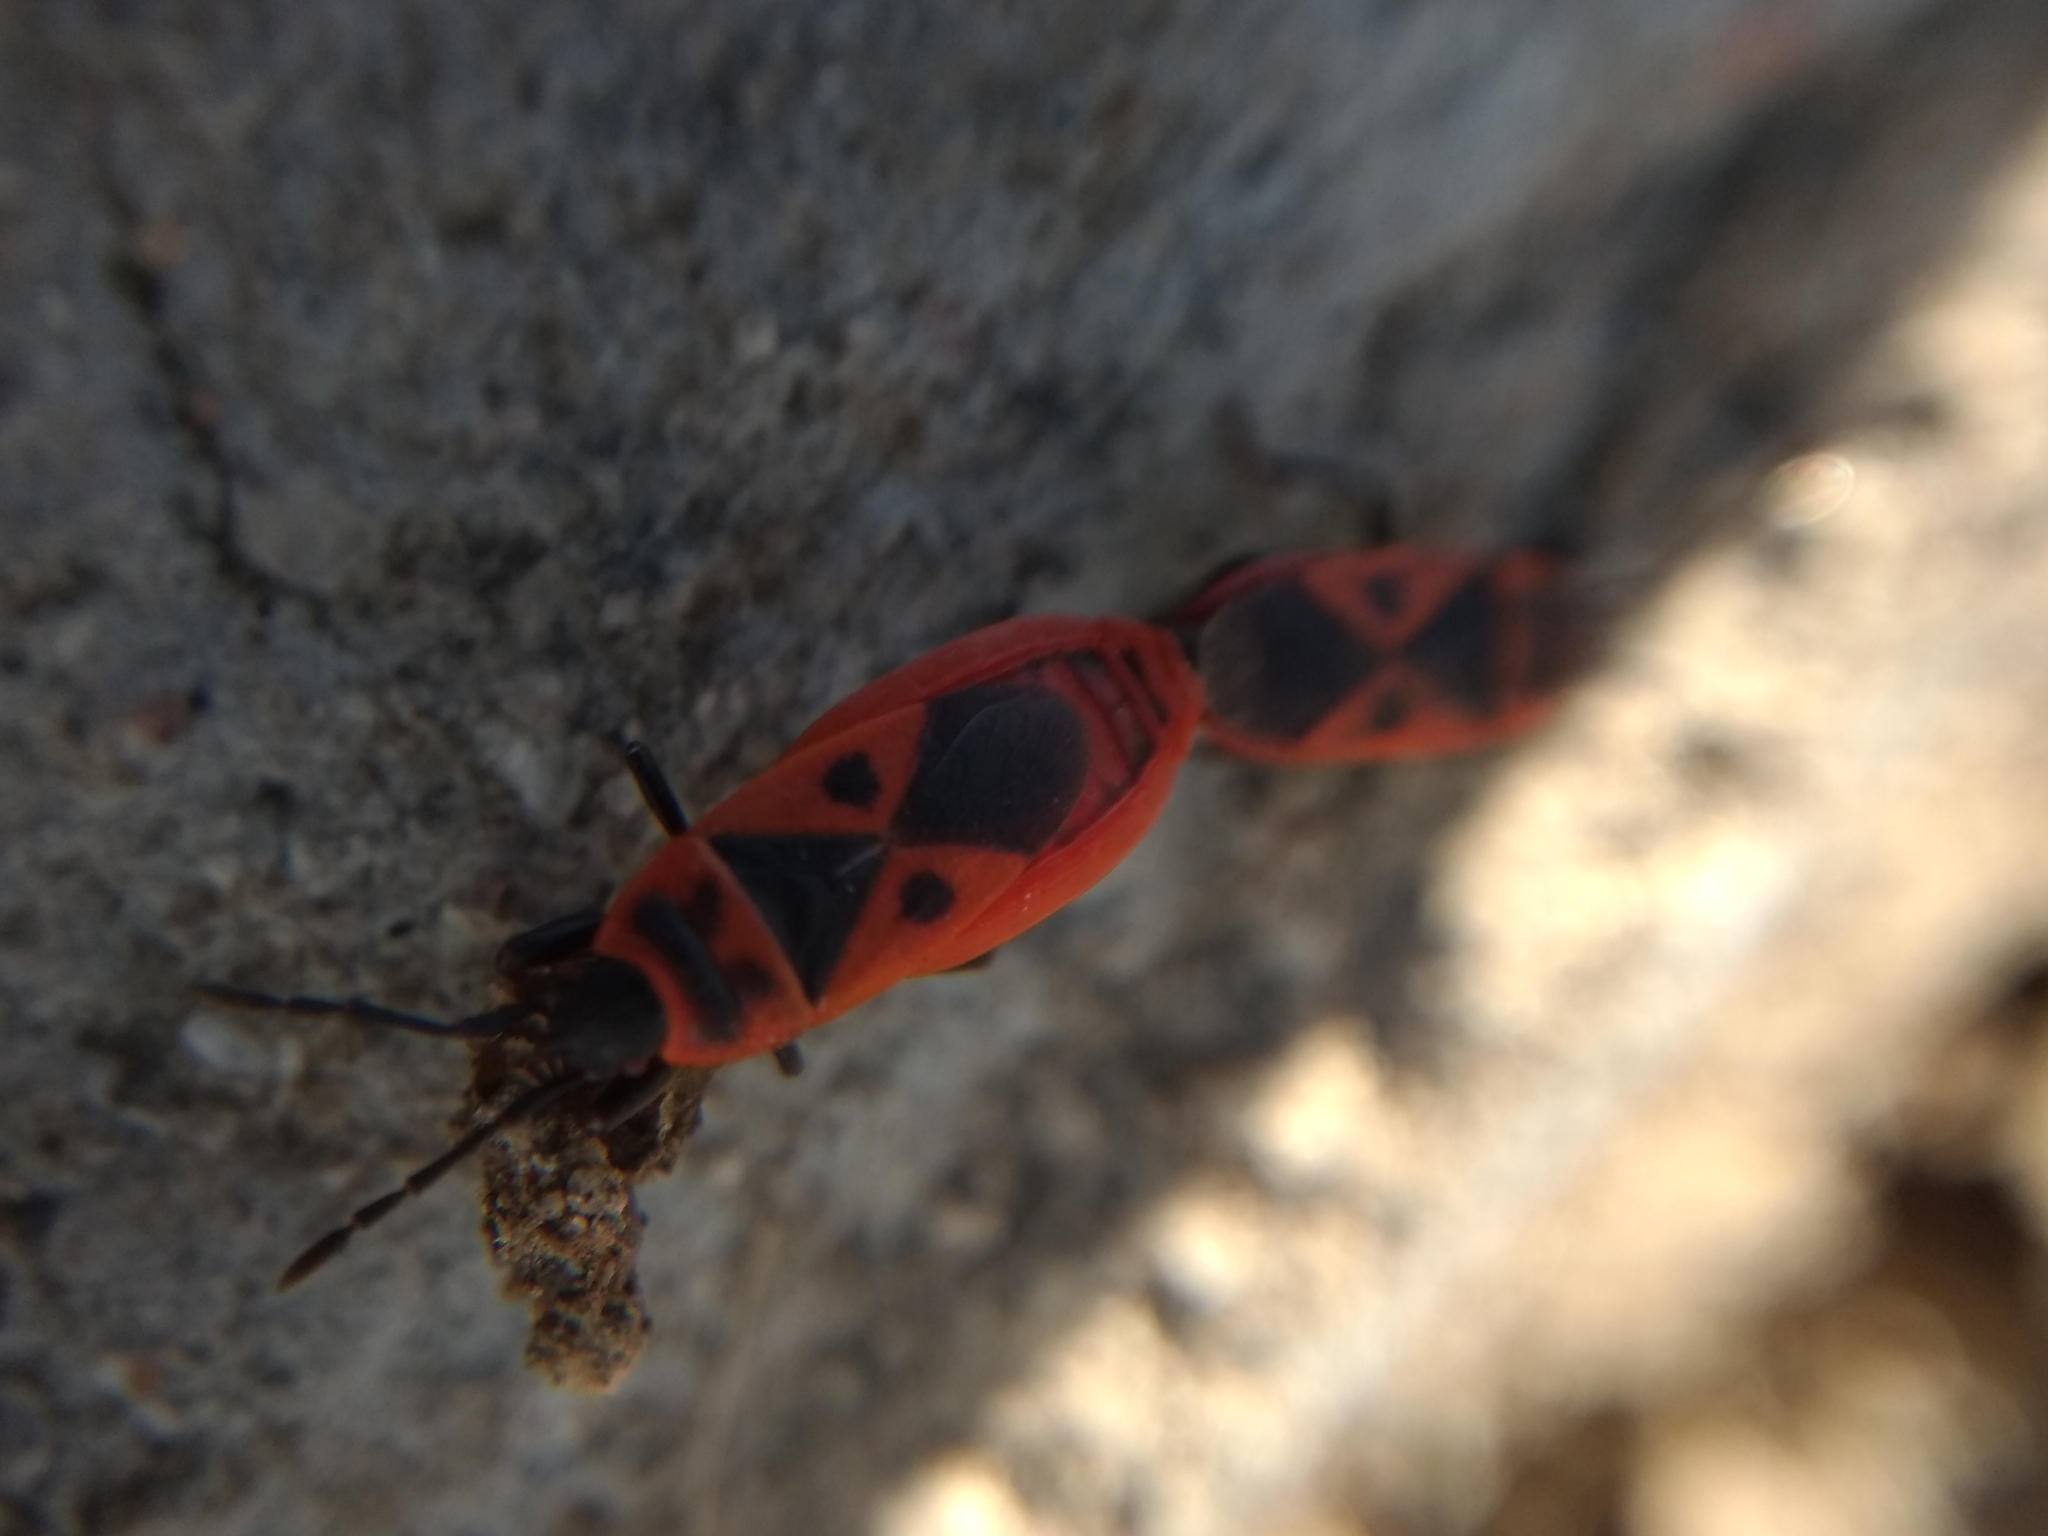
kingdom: Animalia
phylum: Arthropoda
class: Insecta
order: Hemiptera
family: Pyrrhocoridae
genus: Scantius
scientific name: Scantius aegyptius
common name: Red bug
